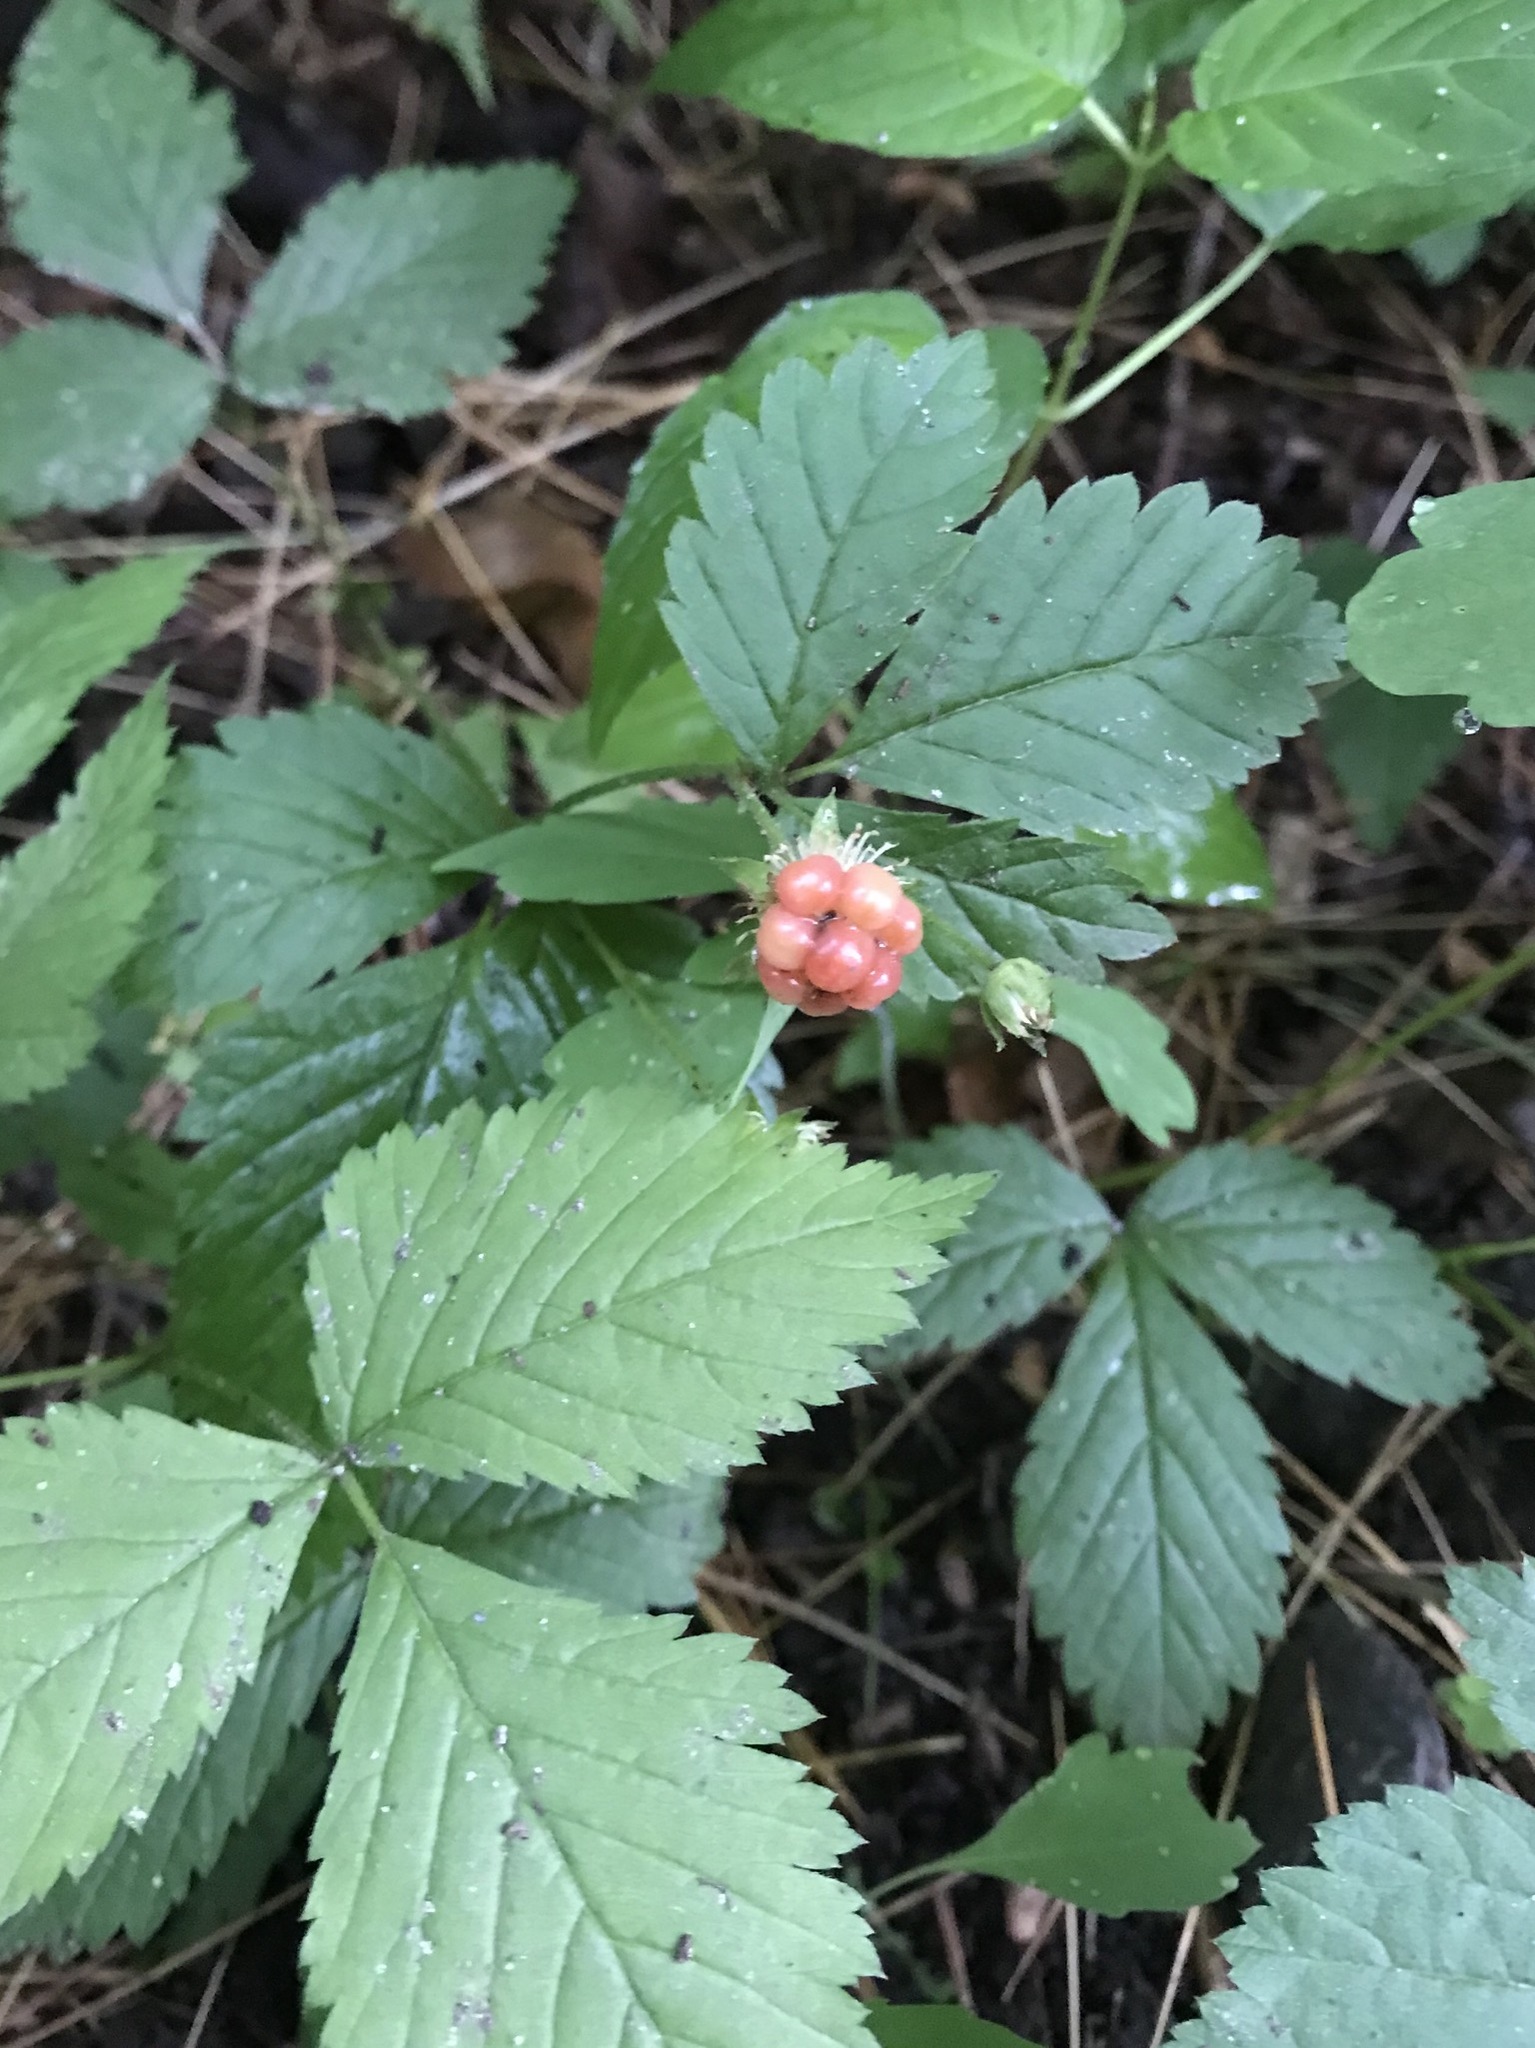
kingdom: Plantae
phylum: Tracheophyta
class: Magnoliopsida
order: Rosales
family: Rosaceae
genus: Rubus
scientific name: Rubus pubescens
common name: Dwarf raspberry
